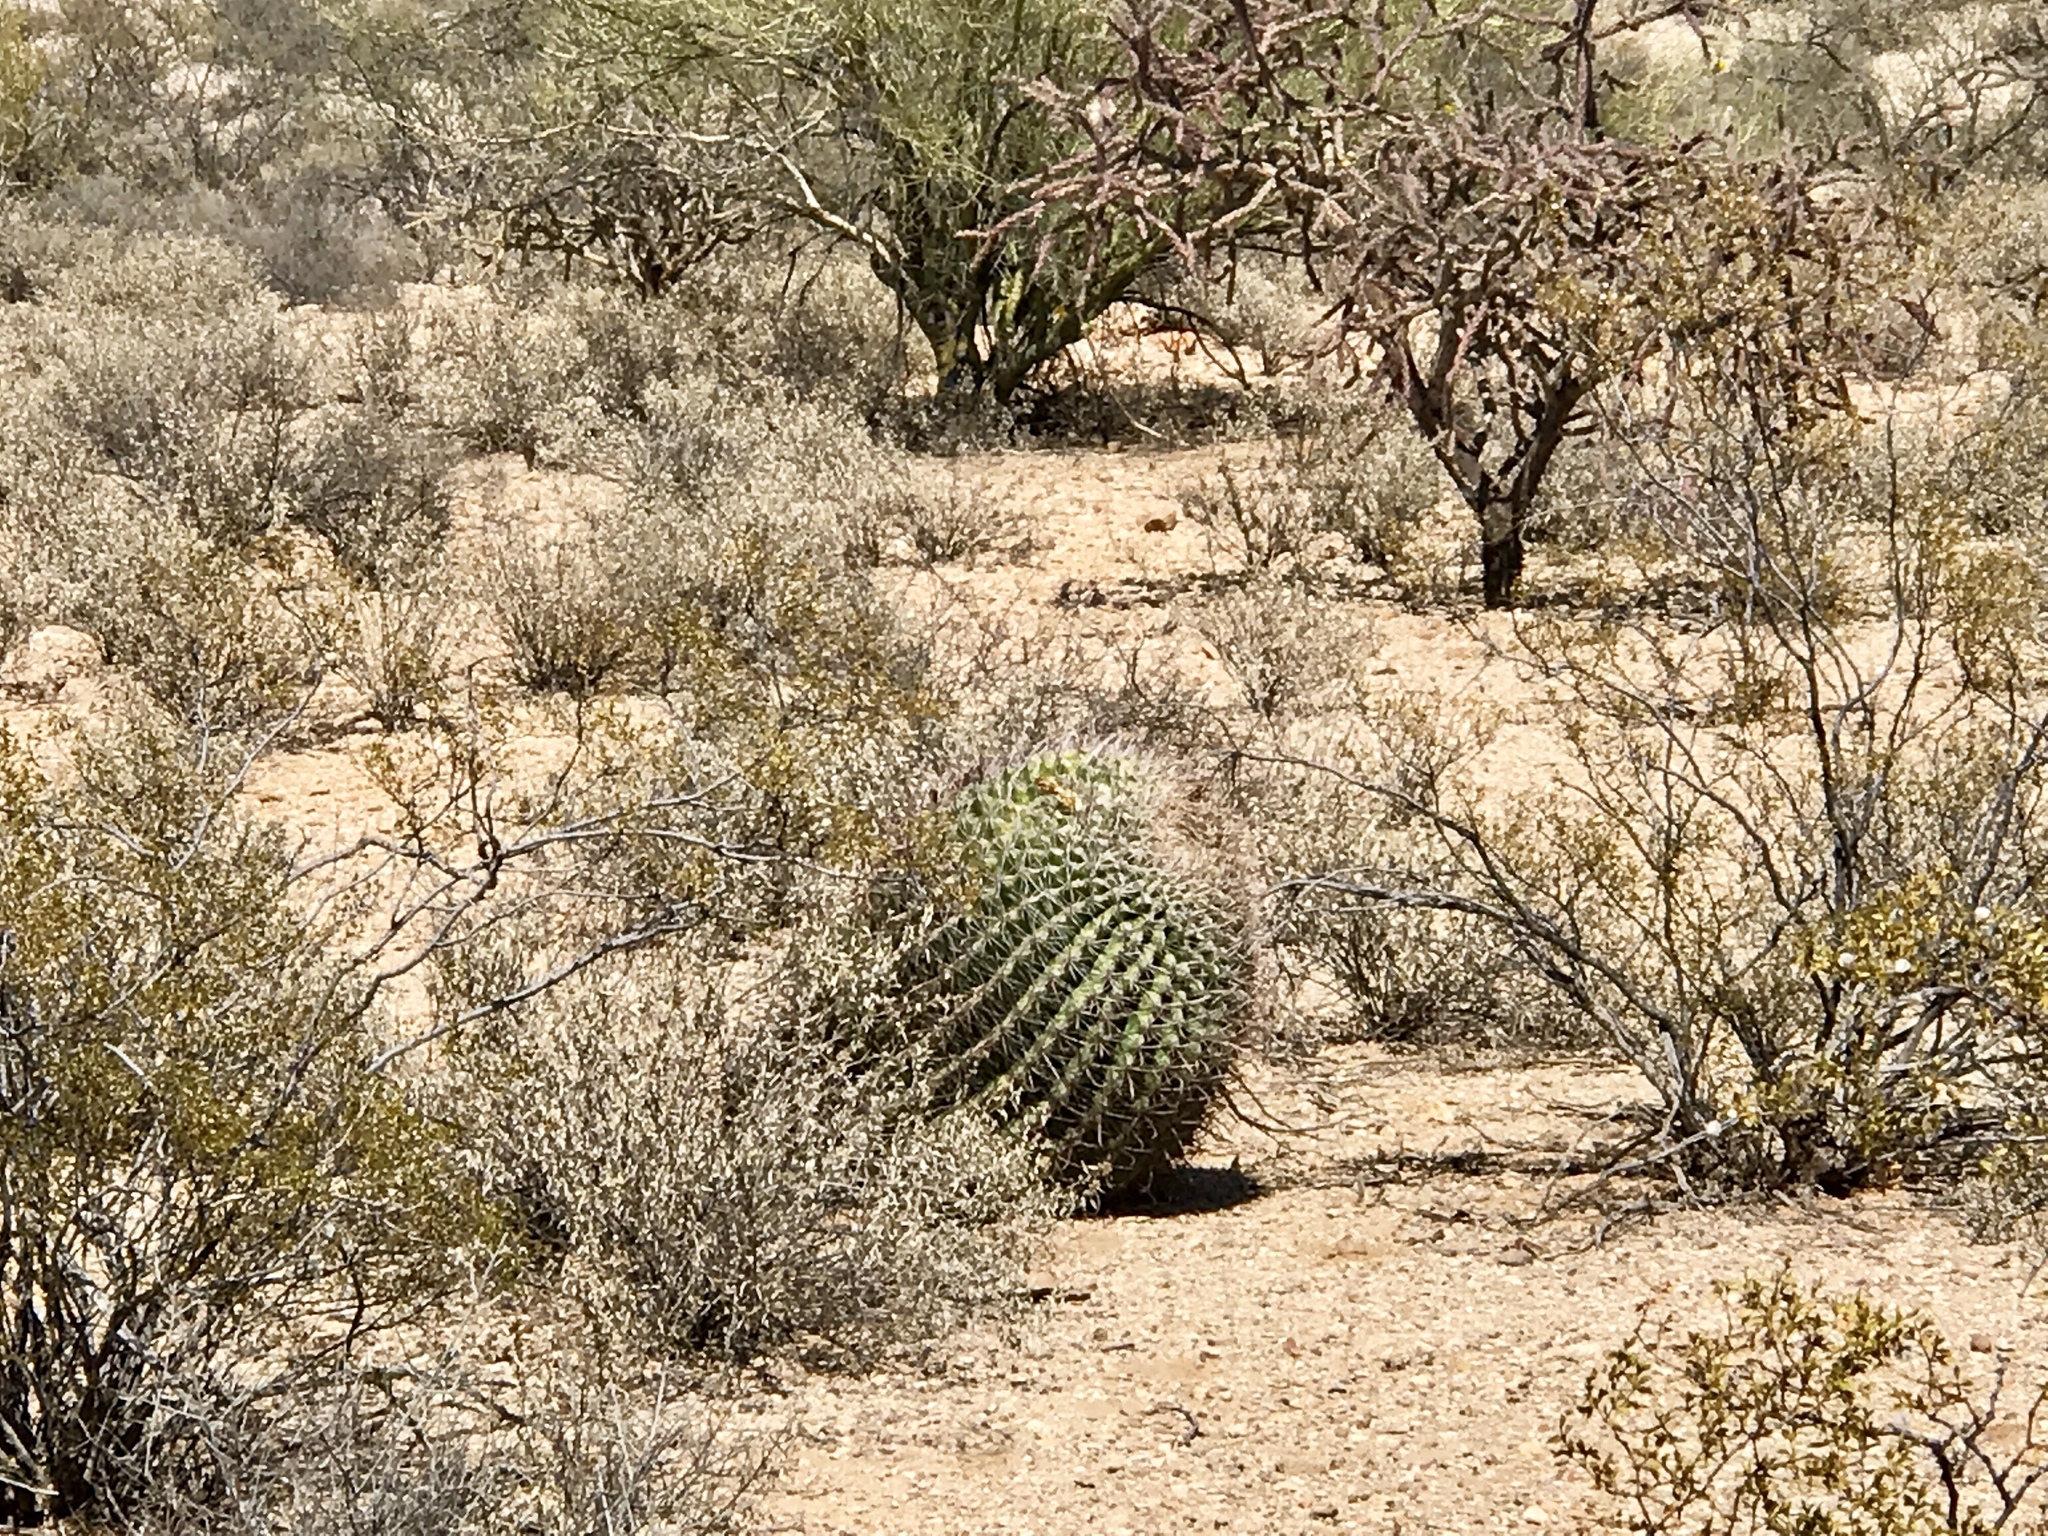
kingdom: Plantae
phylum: Tracheophyta
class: Magnoliopsida
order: Caryophyllales
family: Cactaceae
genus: Ferocactus
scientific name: Ferocactus wislizeni
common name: Candy barrel cactus
